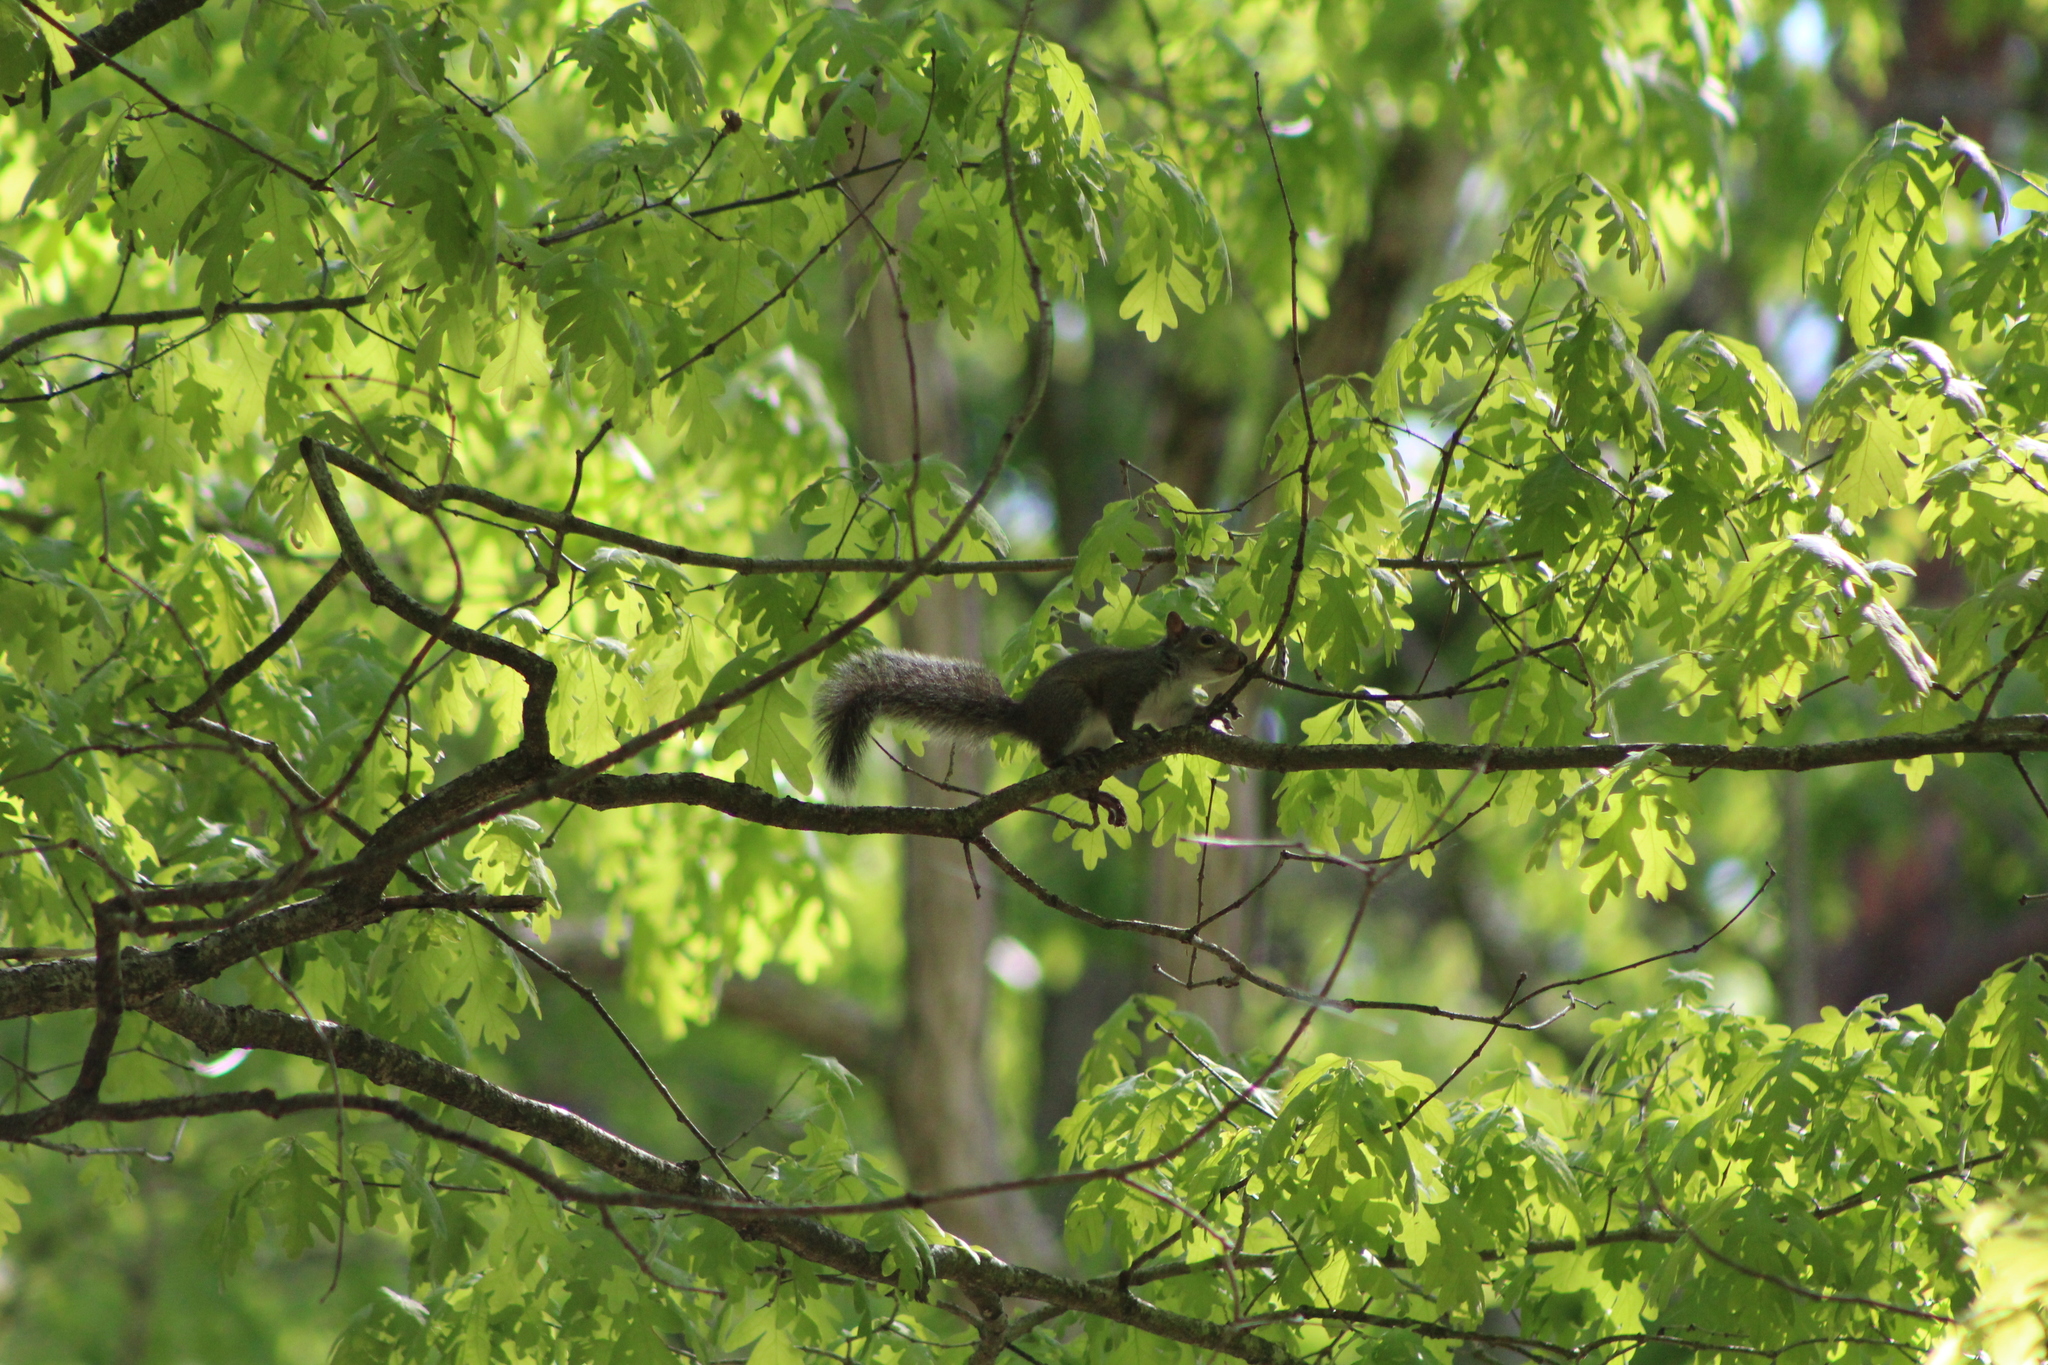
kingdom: Animalia
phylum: Chordata
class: Mammalia
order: Rodentia
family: Sciuridae
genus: Sciurus
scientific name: Sciurus carolinensis
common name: Eastern gray squirrel
